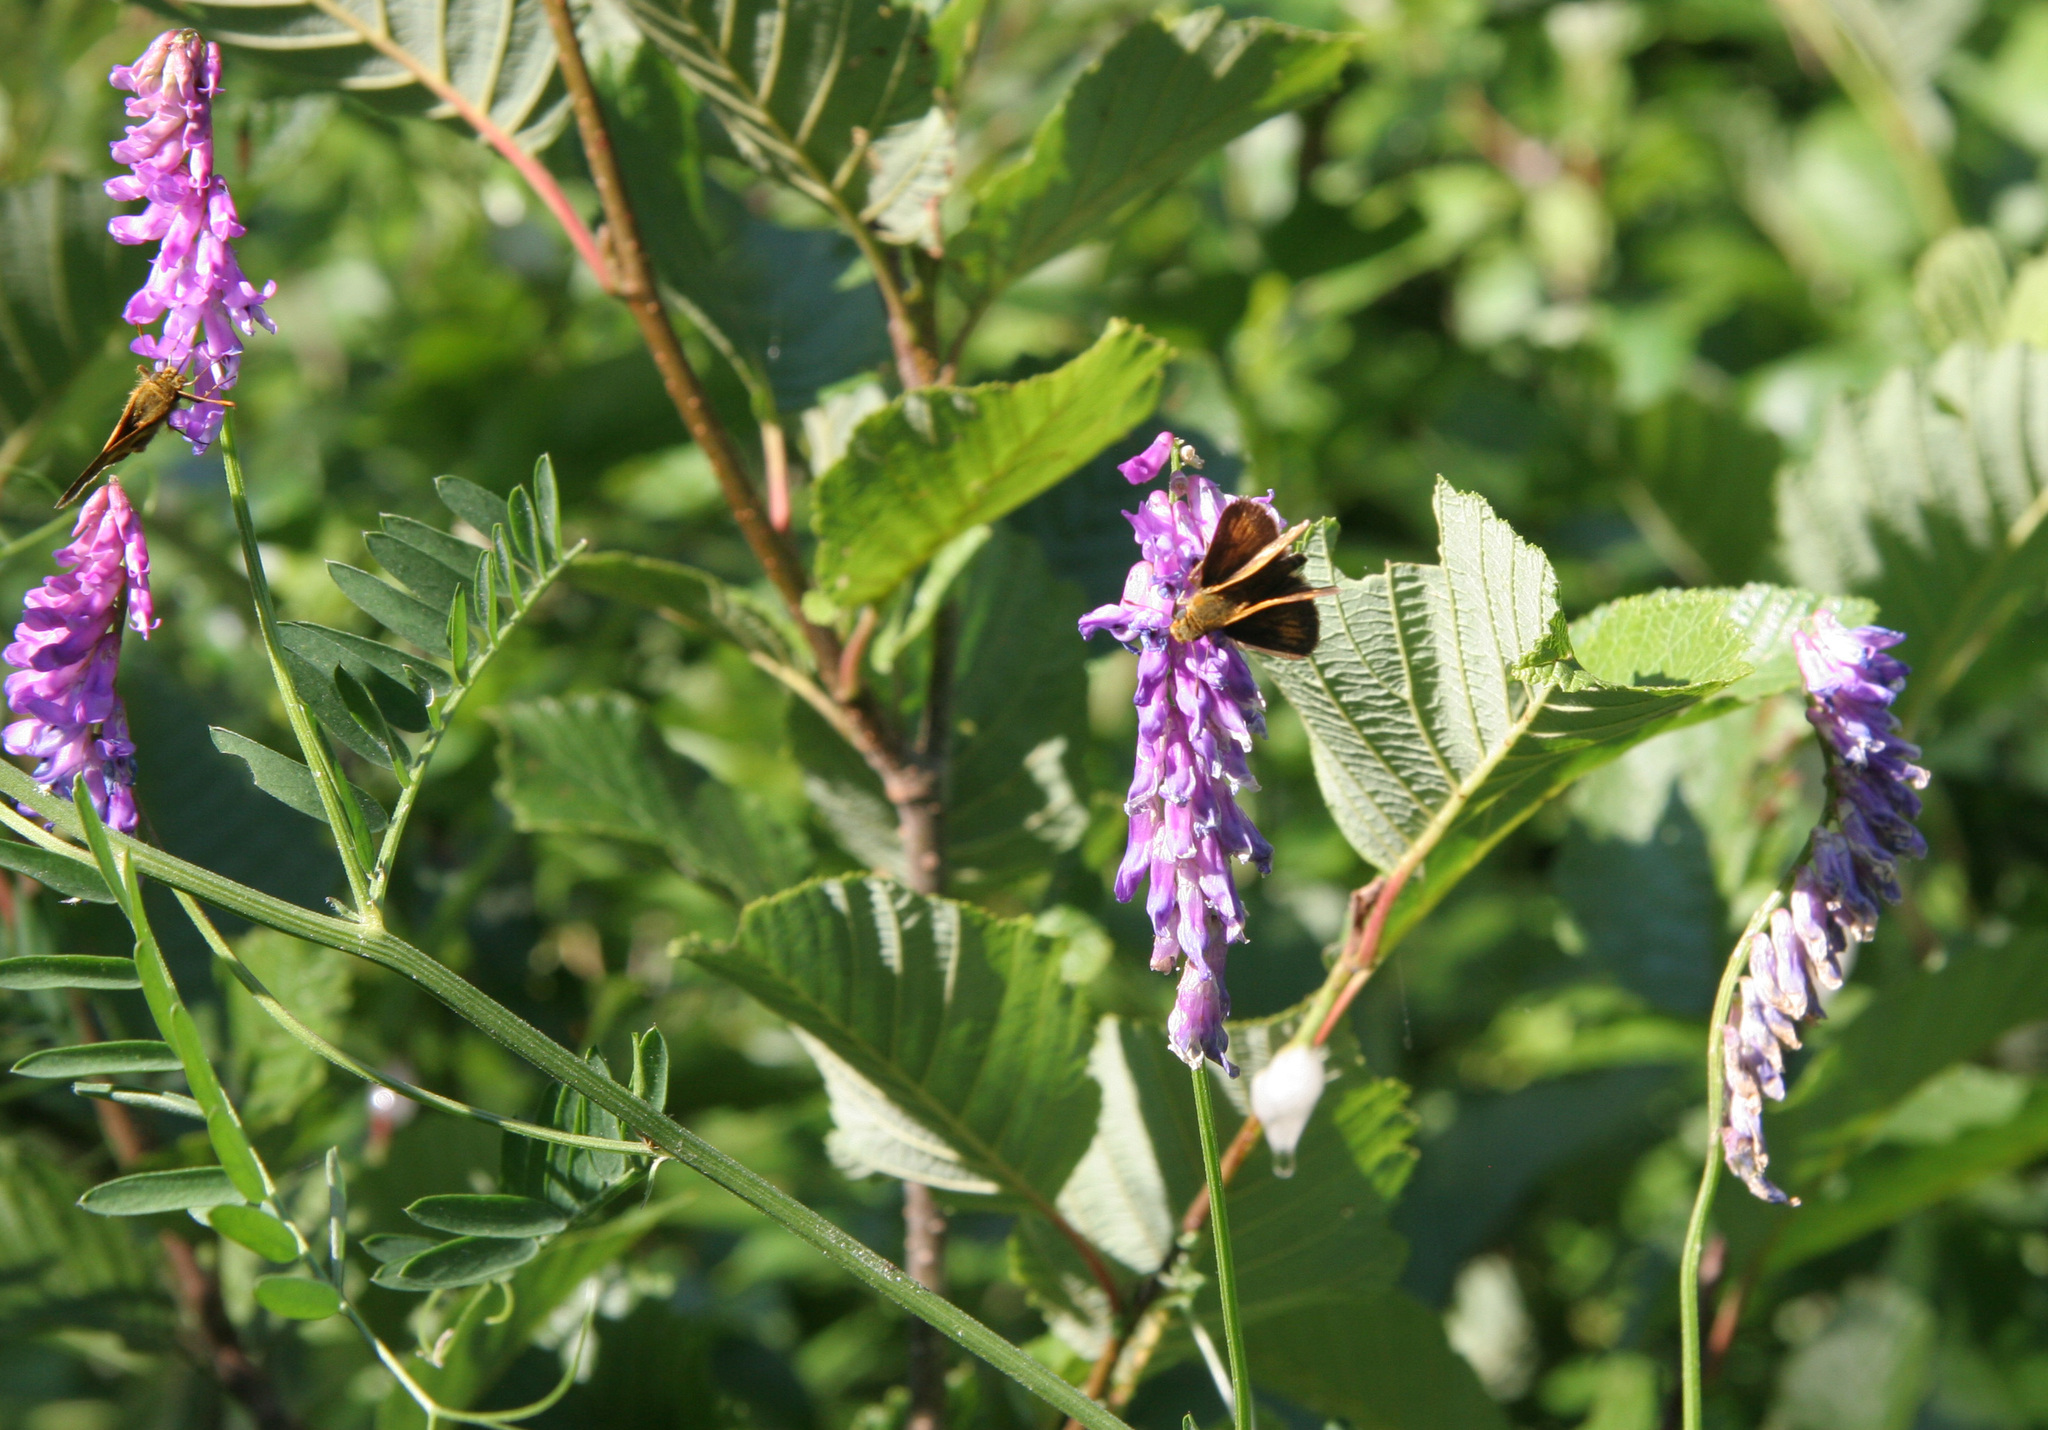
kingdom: Plantae
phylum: Tracheophyta
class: Magnoliopsida
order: Fabales
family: Fabaceae
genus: Vicia
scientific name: Vicia cracca
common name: Bird vetch
